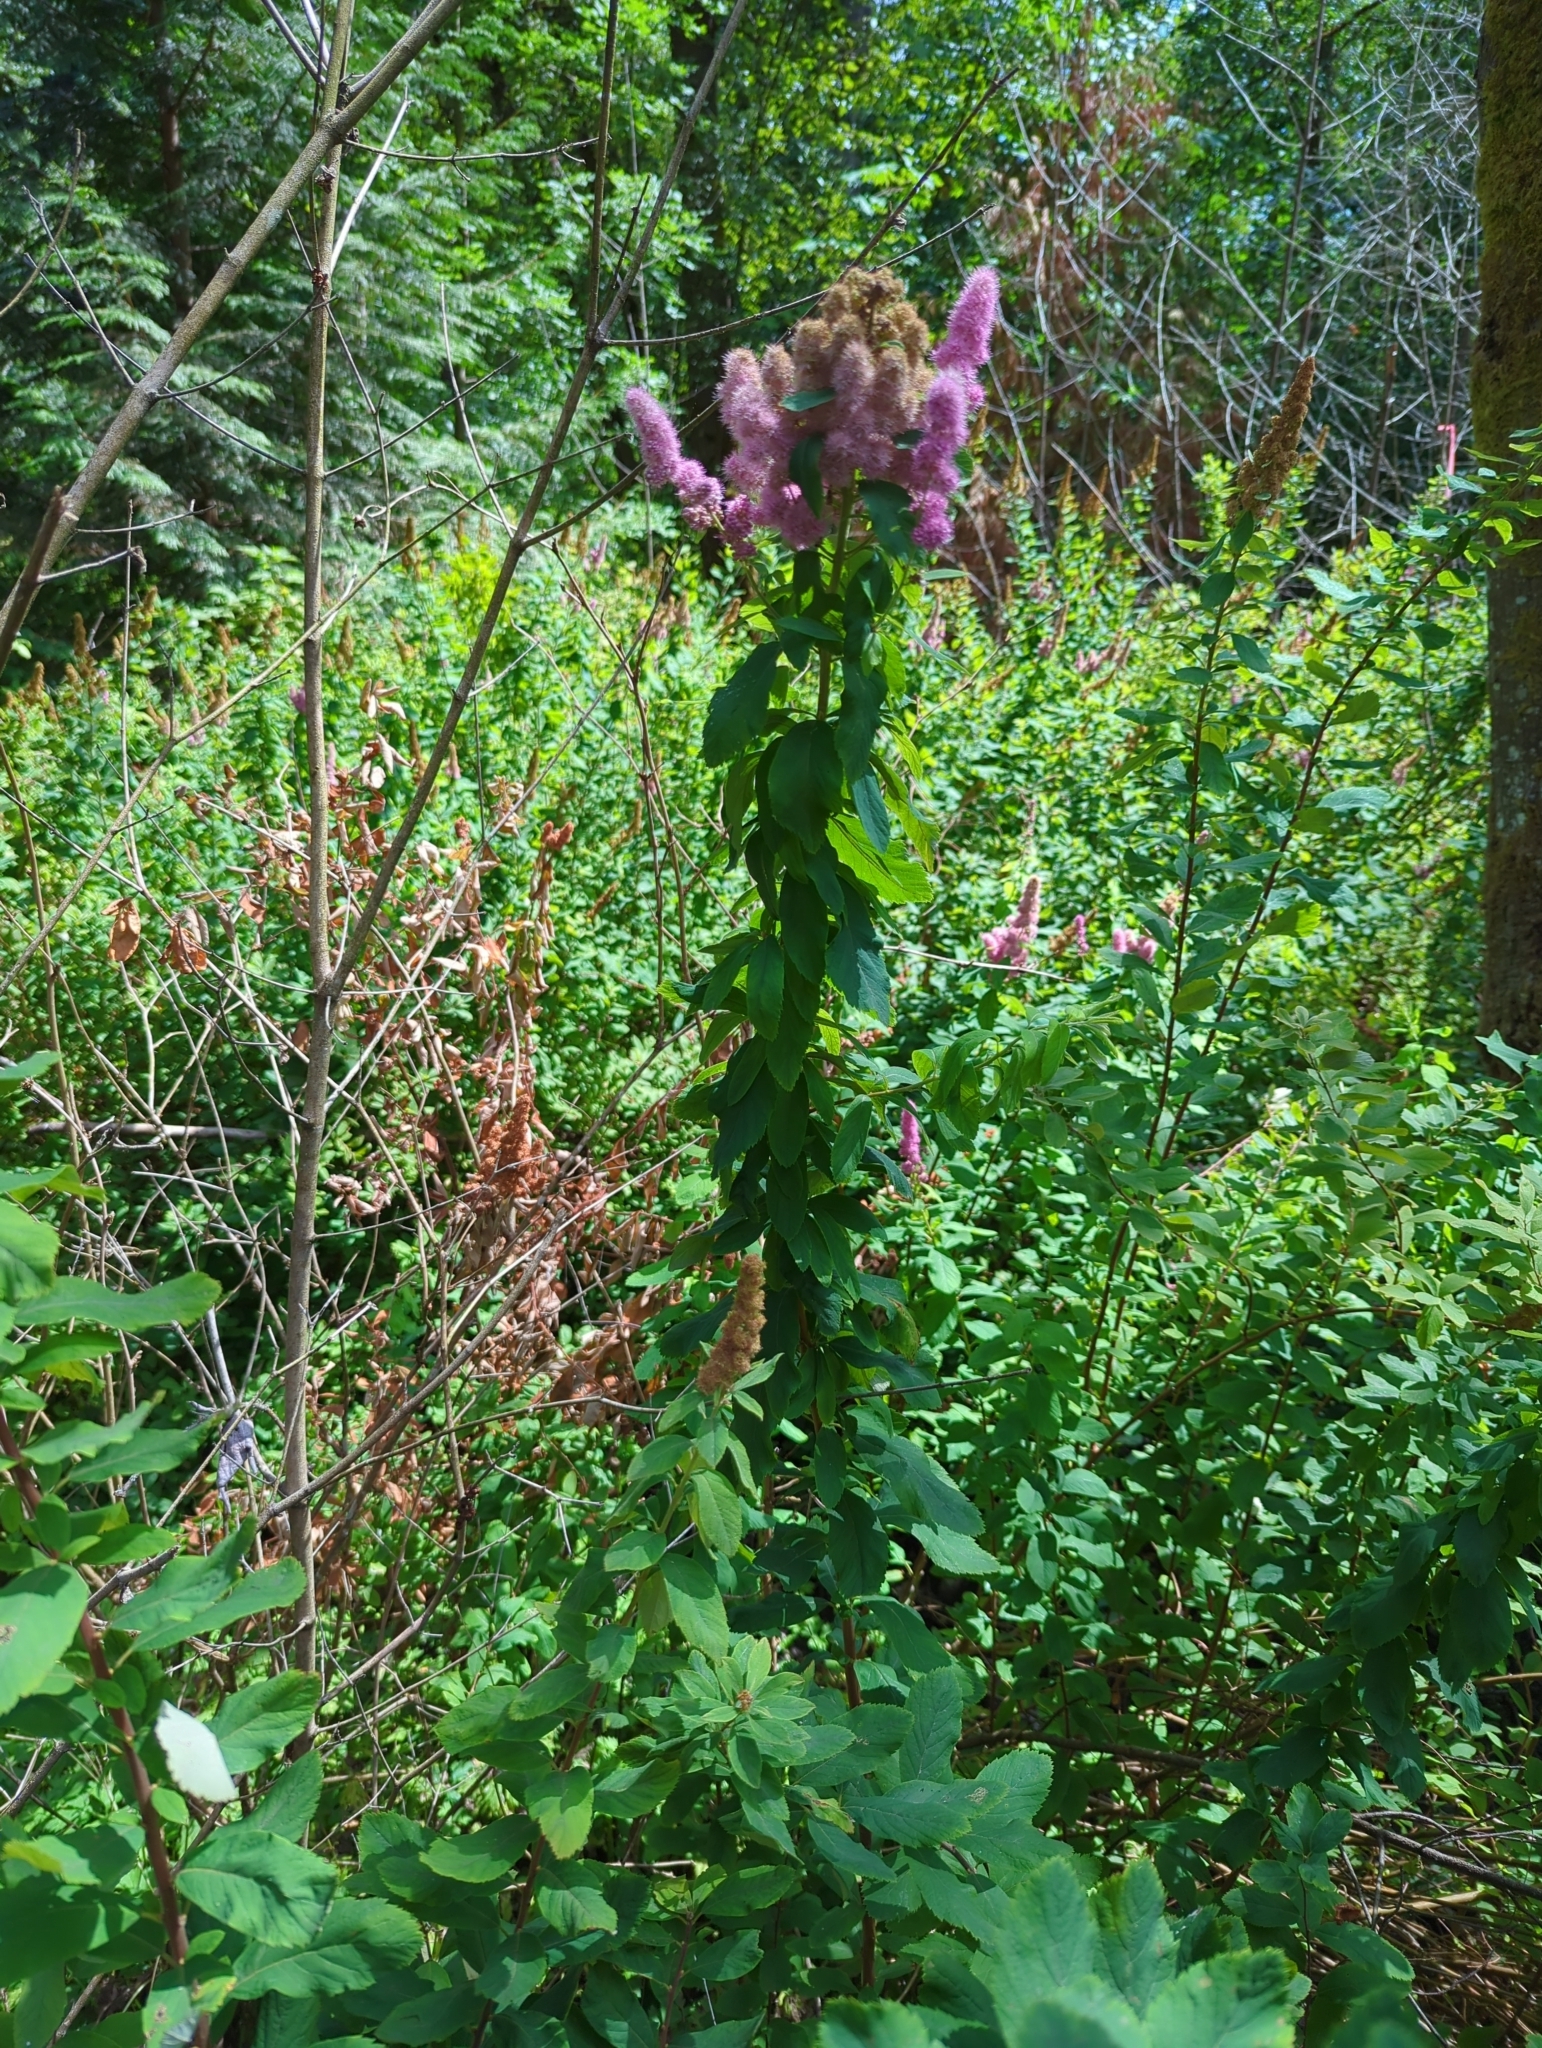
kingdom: Plantae
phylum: Tracheophyta
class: Magnoliopsida
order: Rosales
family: Rosaceae
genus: Spiraea
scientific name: Spiraea douglasii
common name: Steeplebush
